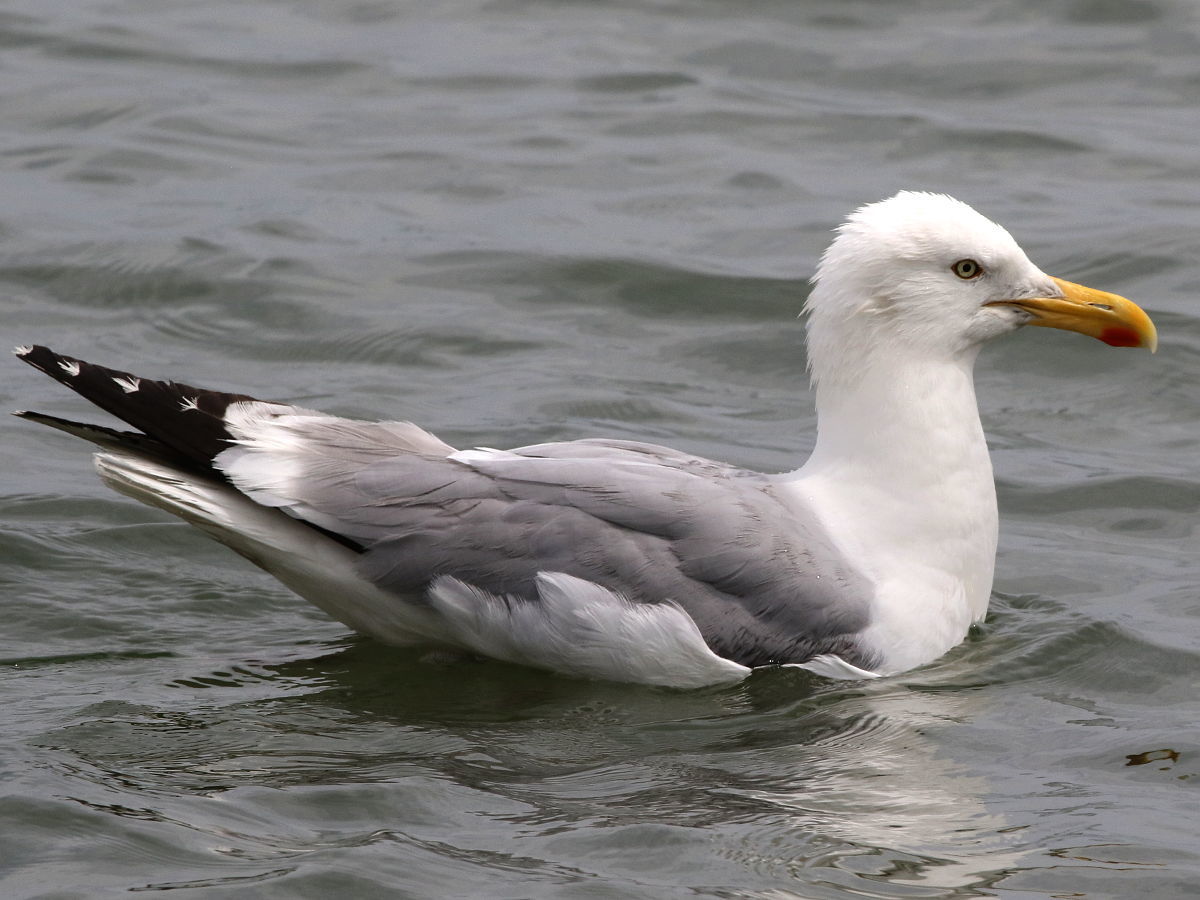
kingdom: Animalia
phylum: Chordata
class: Aves
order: Charadriiformes
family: Laridae
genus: Larus
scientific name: Larus argentatus
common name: Herring gull
